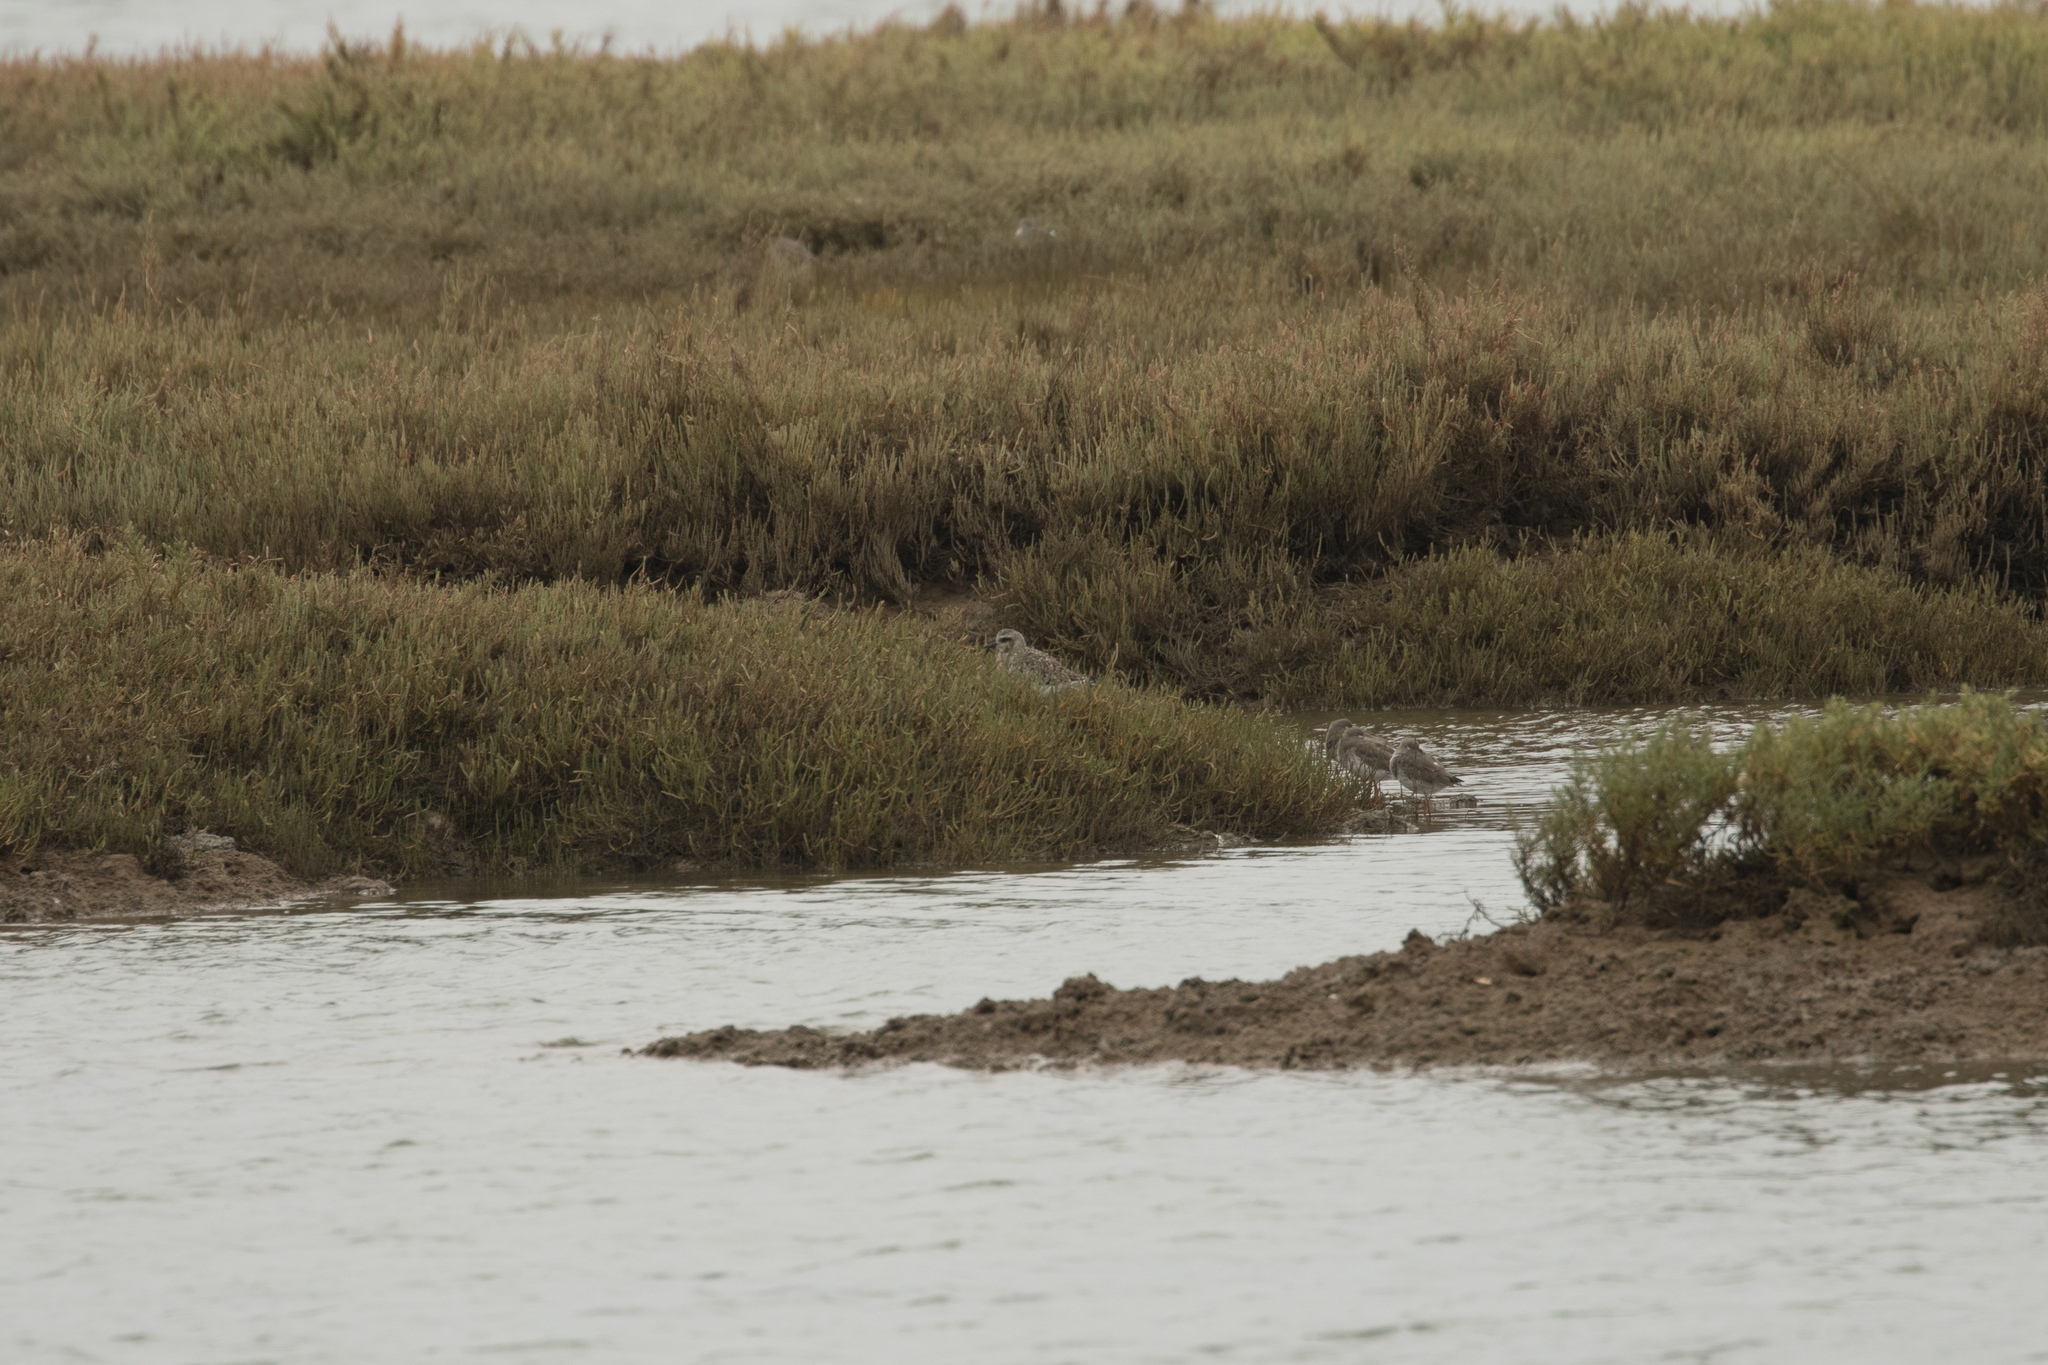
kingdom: Animalia
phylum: Chordata
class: Aves
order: Charadriiformes
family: Charadriidae
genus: Pluvialis
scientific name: Pluvialis squatarola
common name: Grey plover
